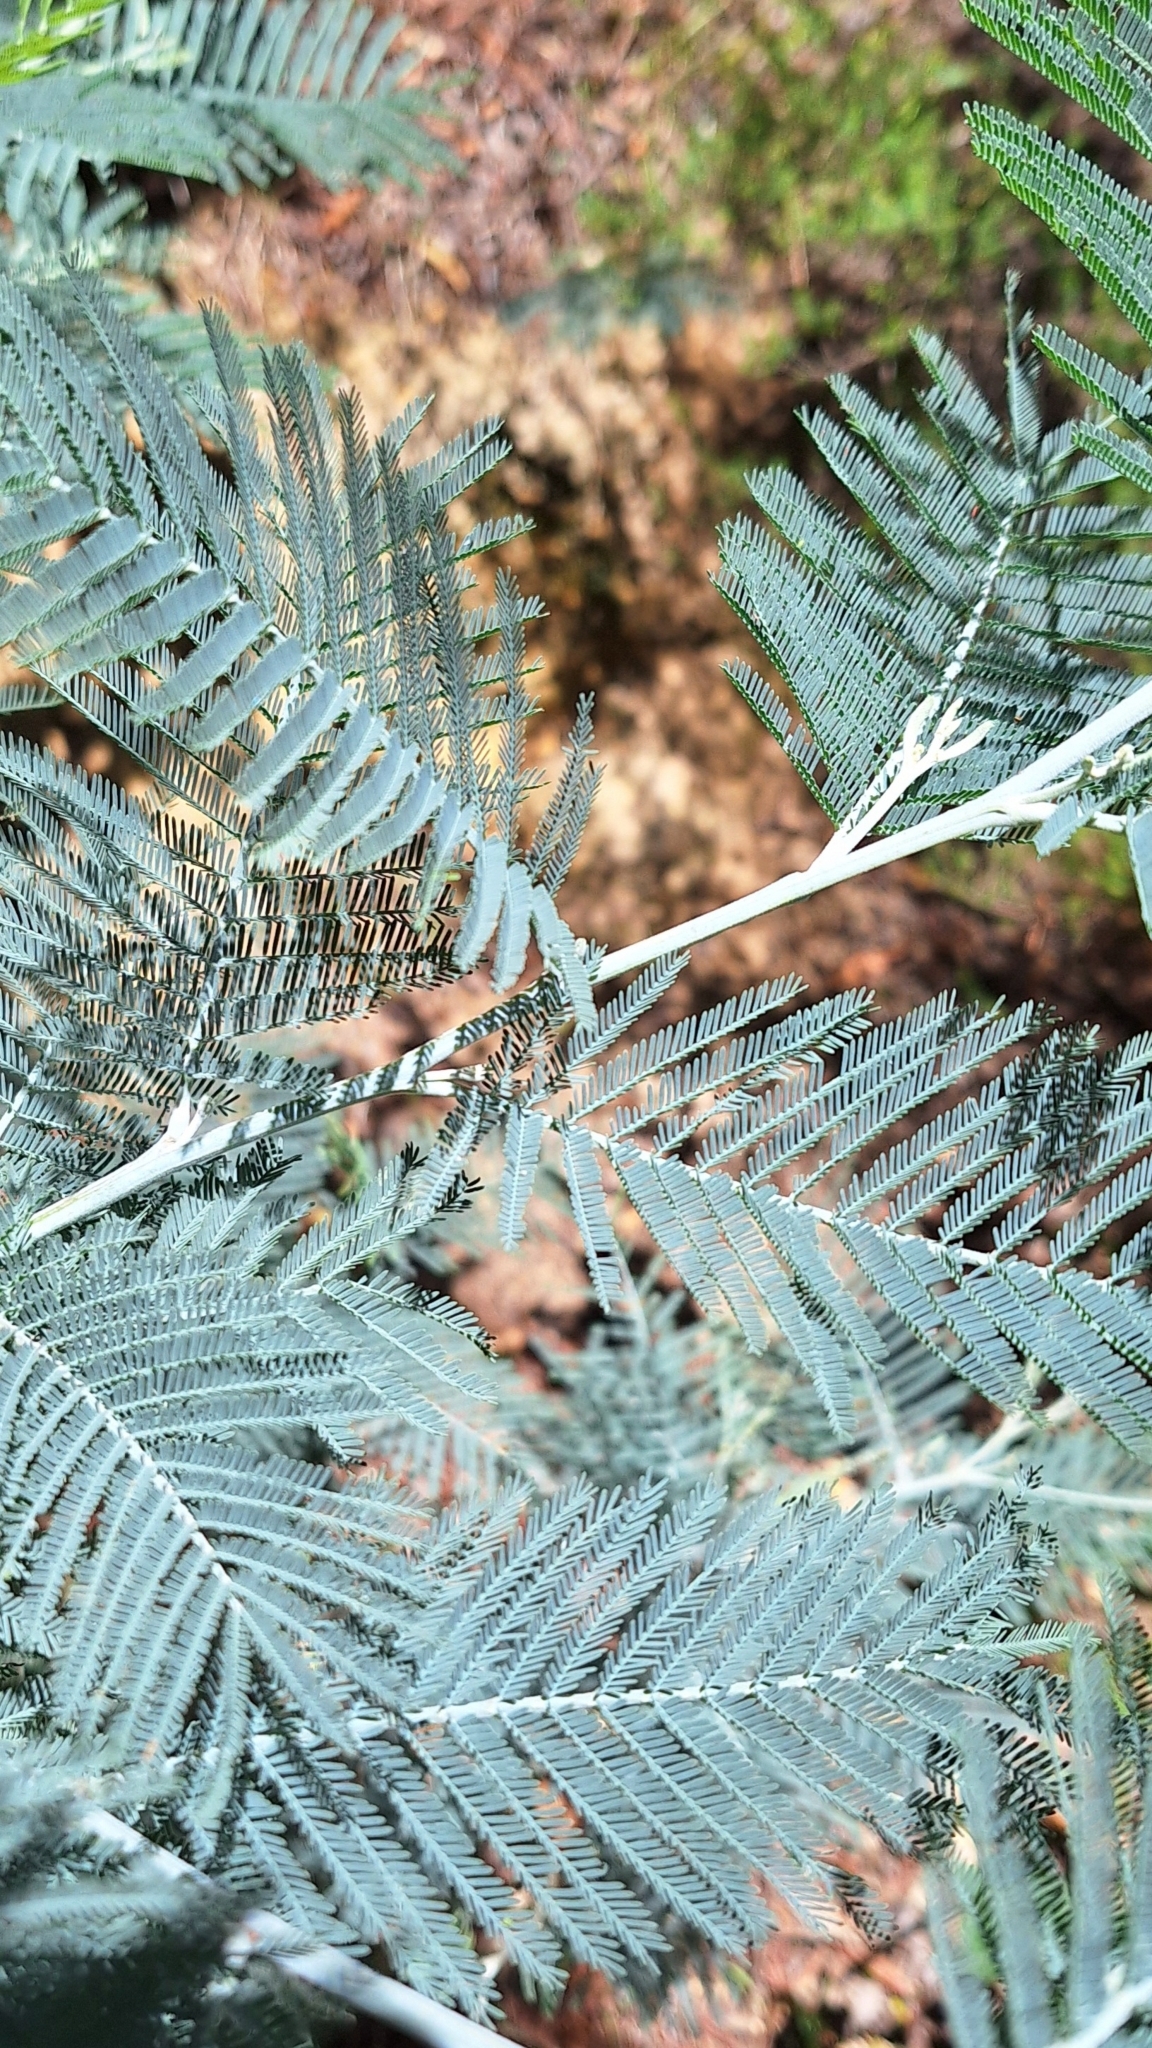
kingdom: Plantae
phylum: Tracheophyta
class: Magnoliopsida
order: Fabales
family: Fabaceae
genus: Acacia
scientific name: Acacia dealbata
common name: Silver wattle
